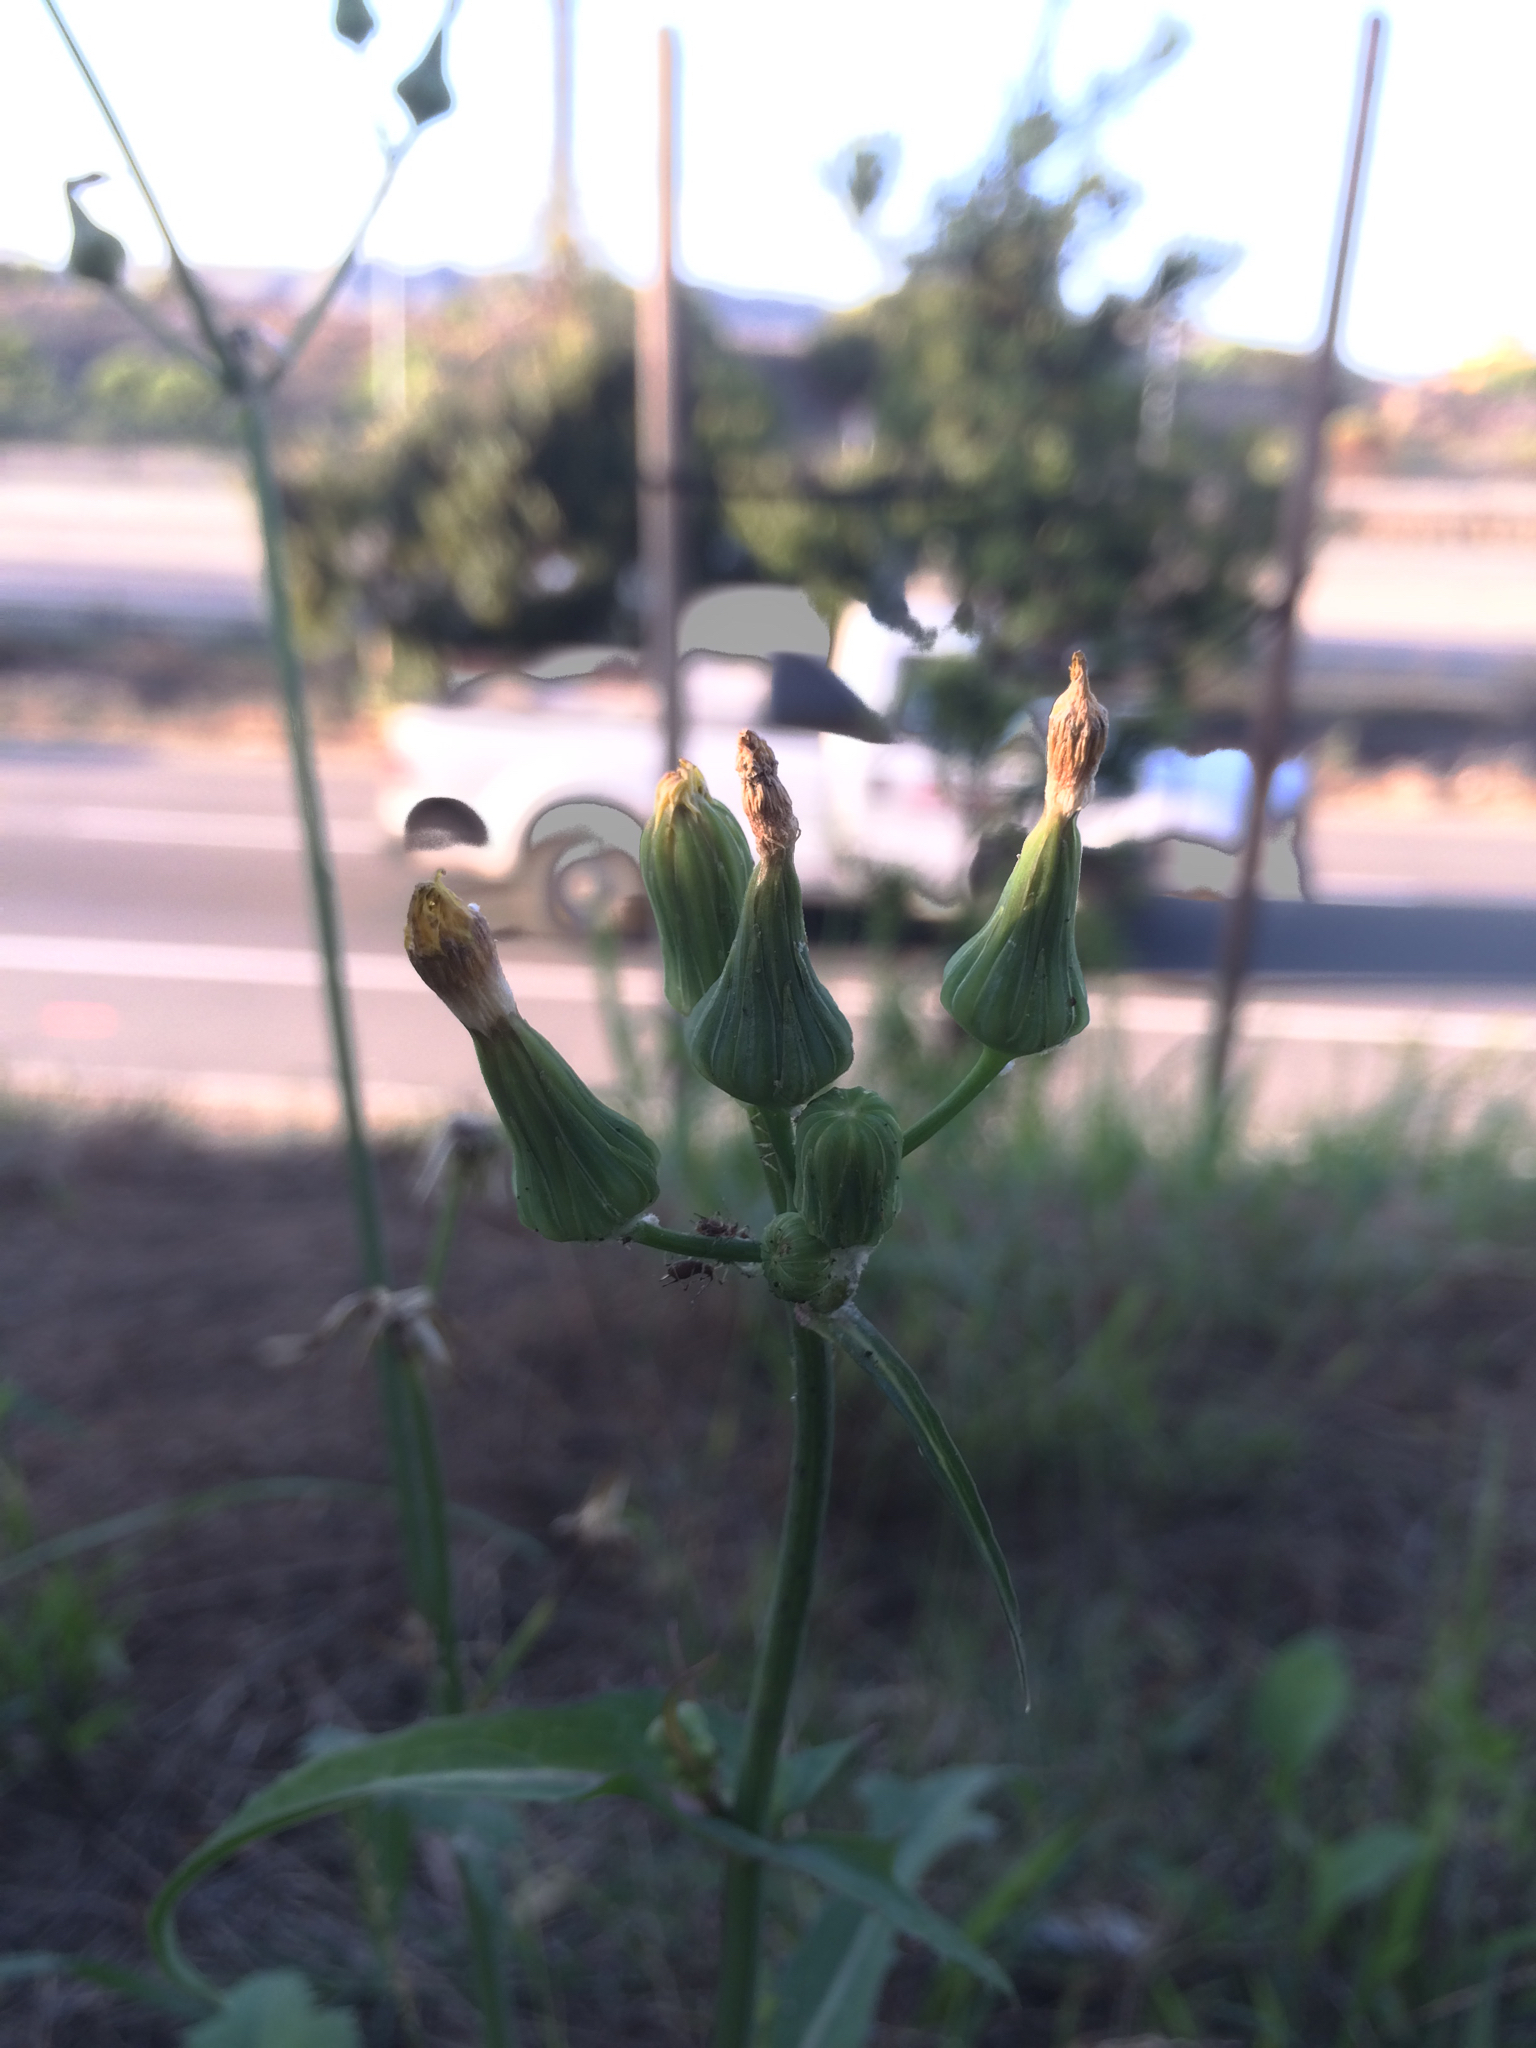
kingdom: Plantae
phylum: Tracheophyta
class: Magnoliopsida
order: Asterales
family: Asteraceae
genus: Sonchus
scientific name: Sonchus oleraceus
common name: Common sowthistle
